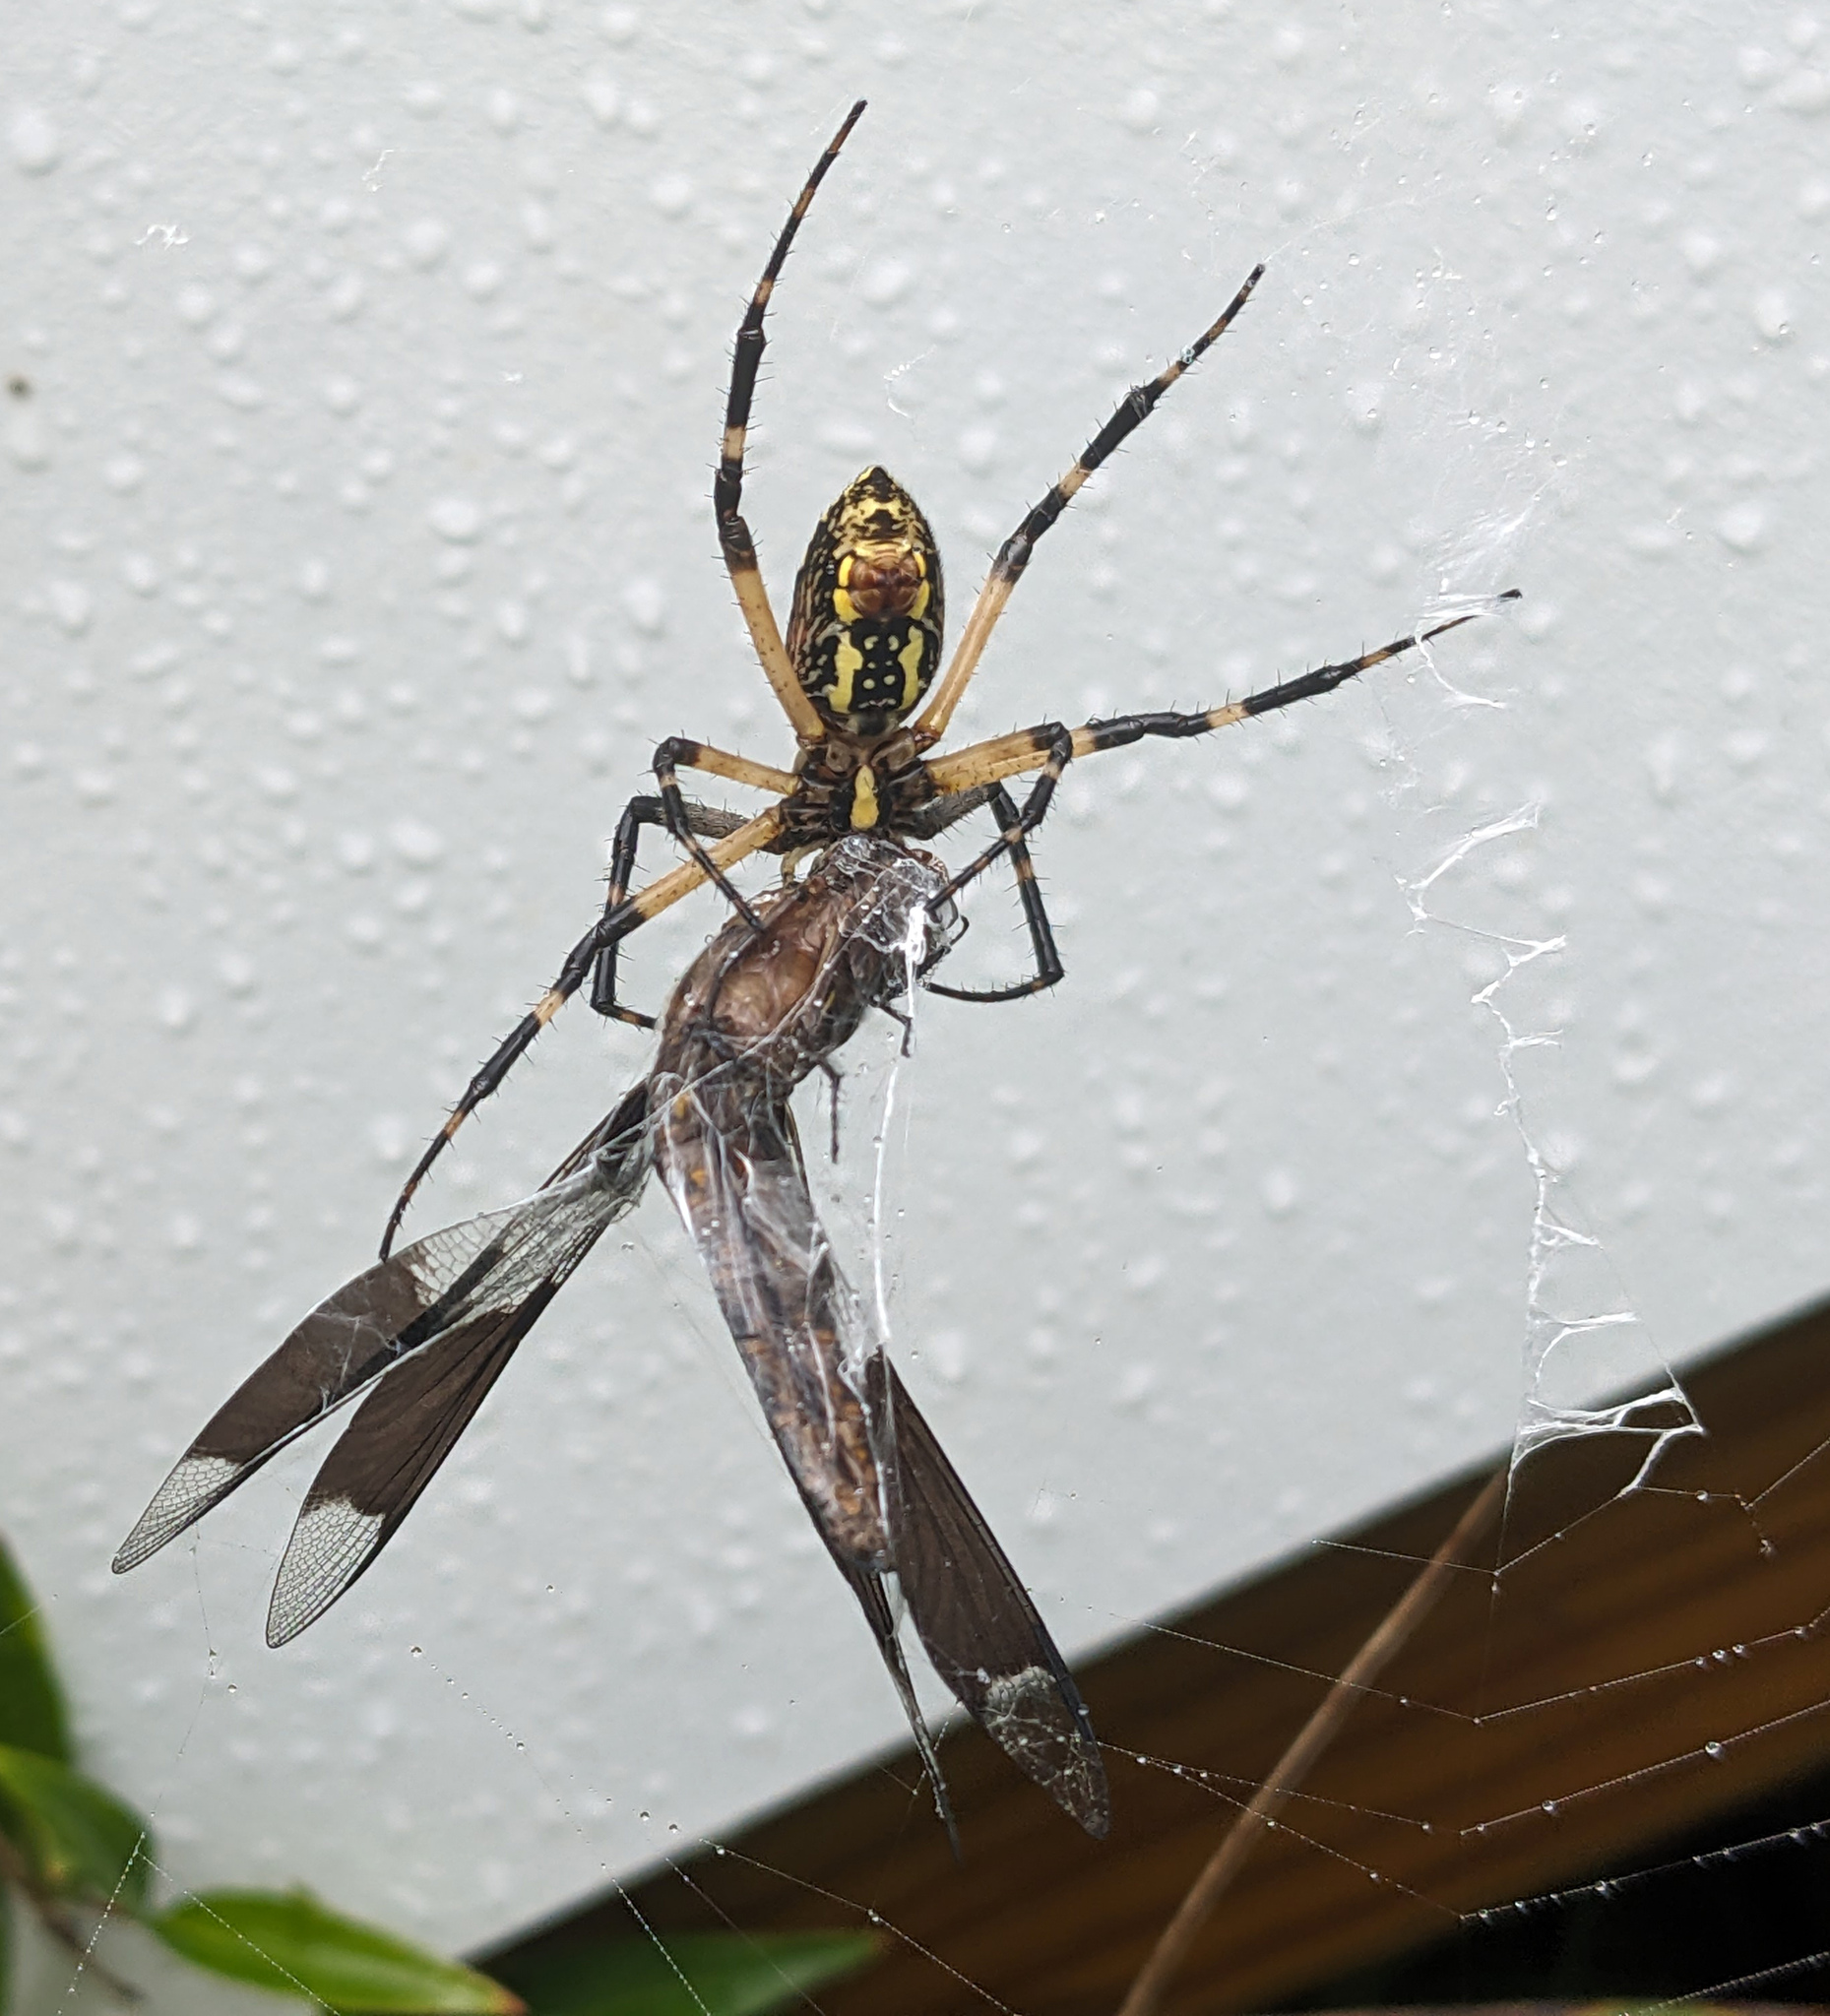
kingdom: Animalia
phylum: Arthropoda
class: Arachnida
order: Araneae
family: Araneidae
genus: Argiope
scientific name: Argiope aurantia
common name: Orb weavers
